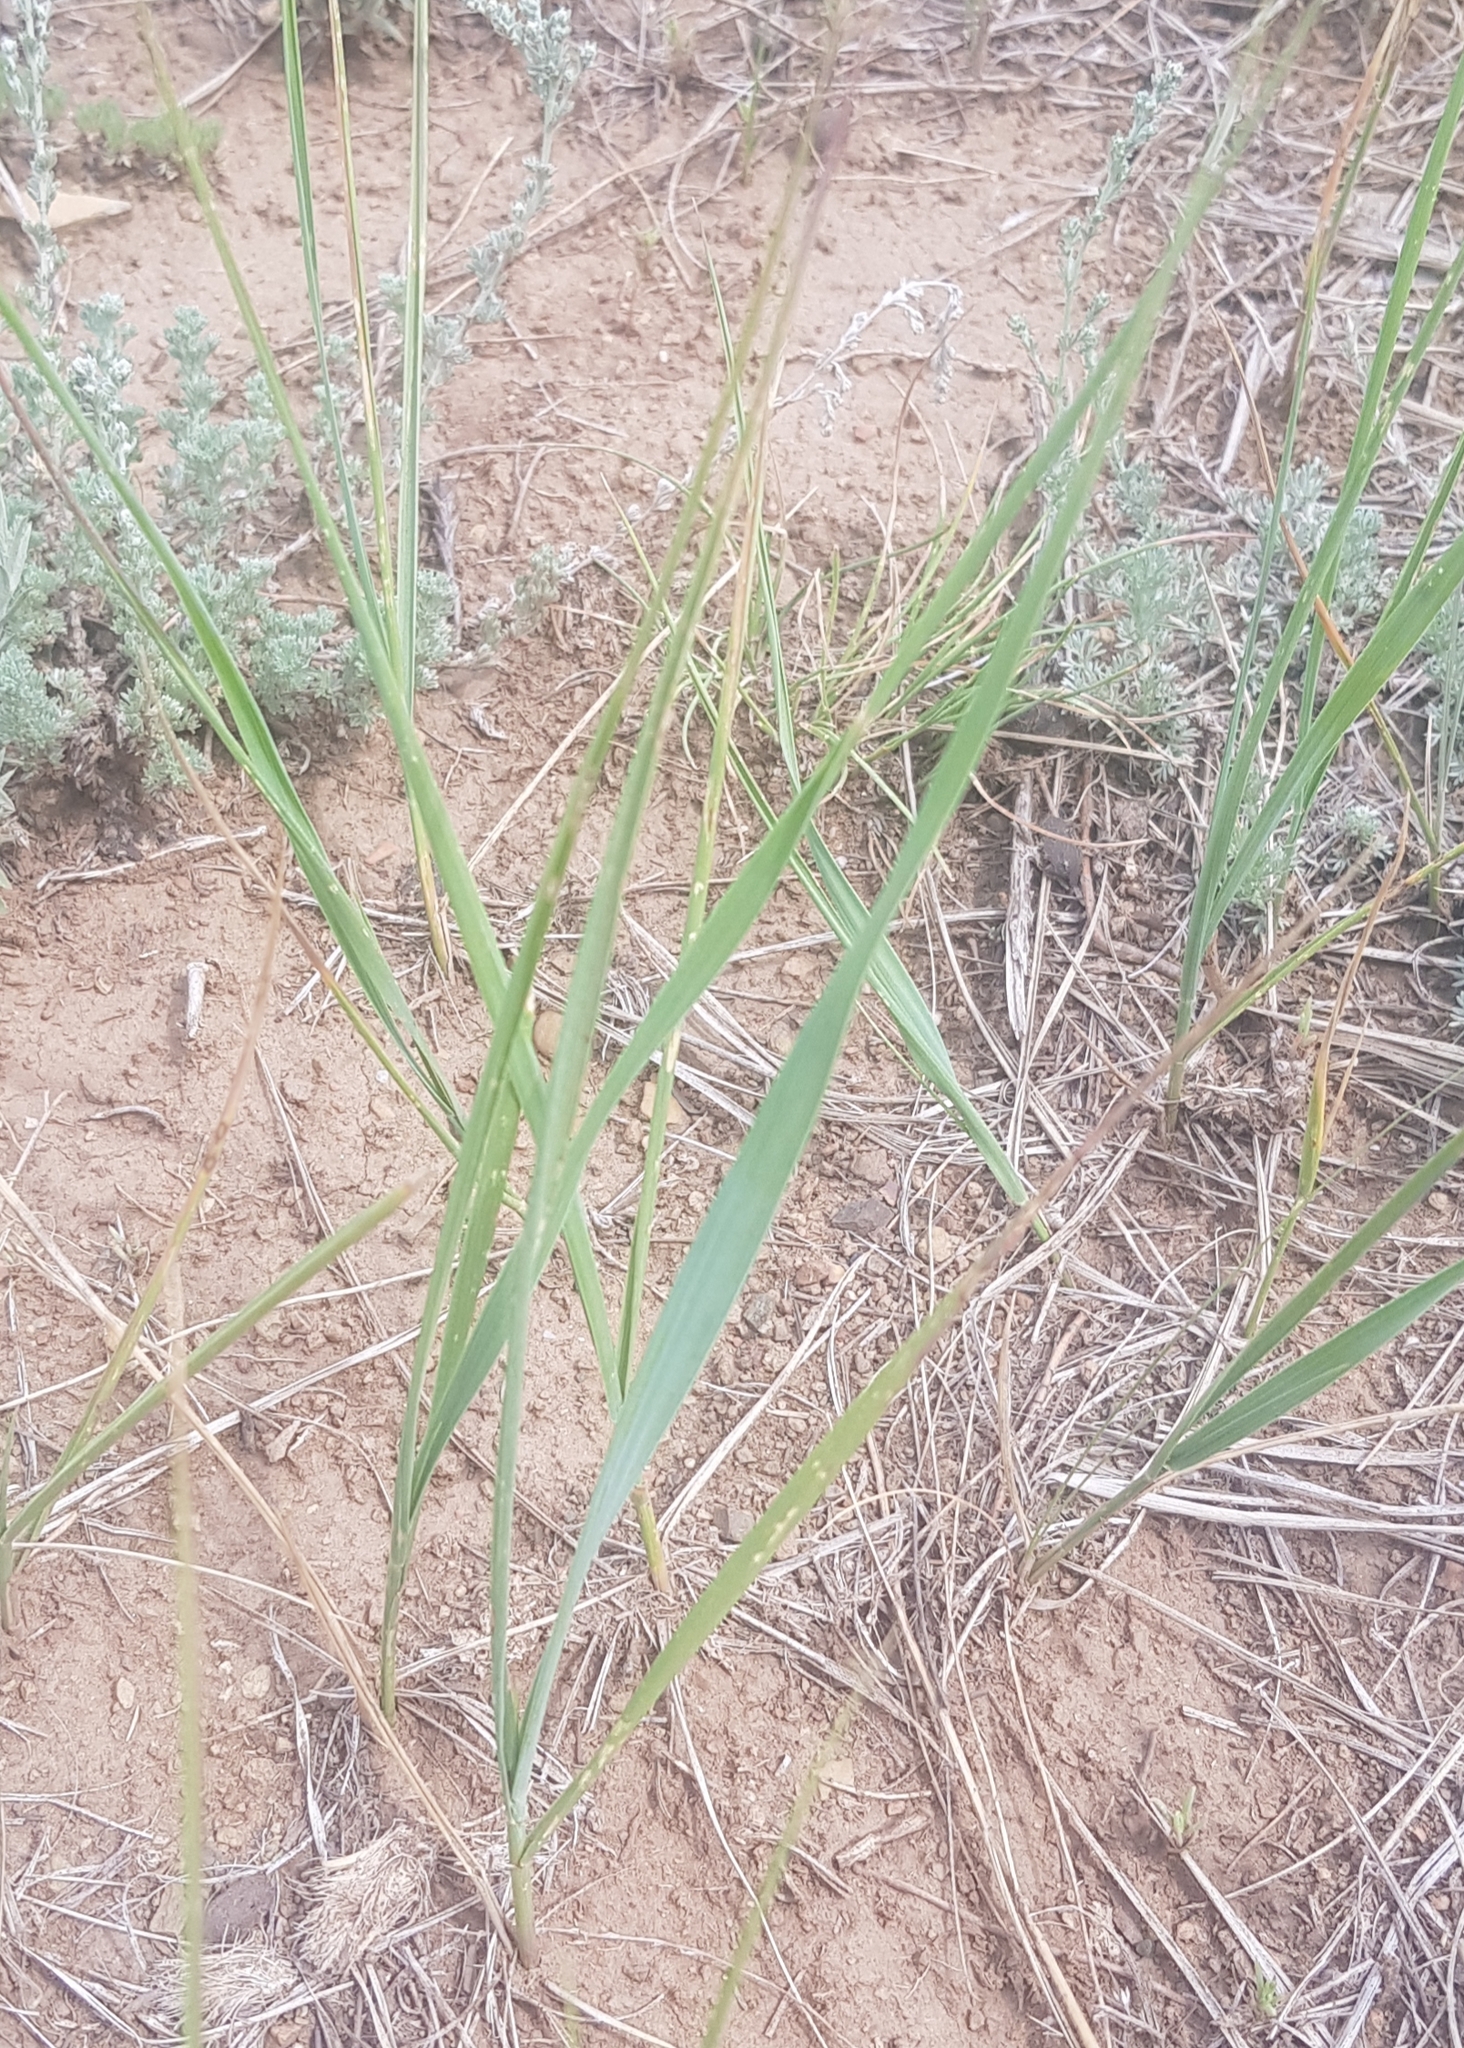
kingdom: Plantae
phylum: Tracheophyta
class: Liliopsida
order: Poales
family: Poaceae
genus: Leymus
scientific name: Leymus chinensis
